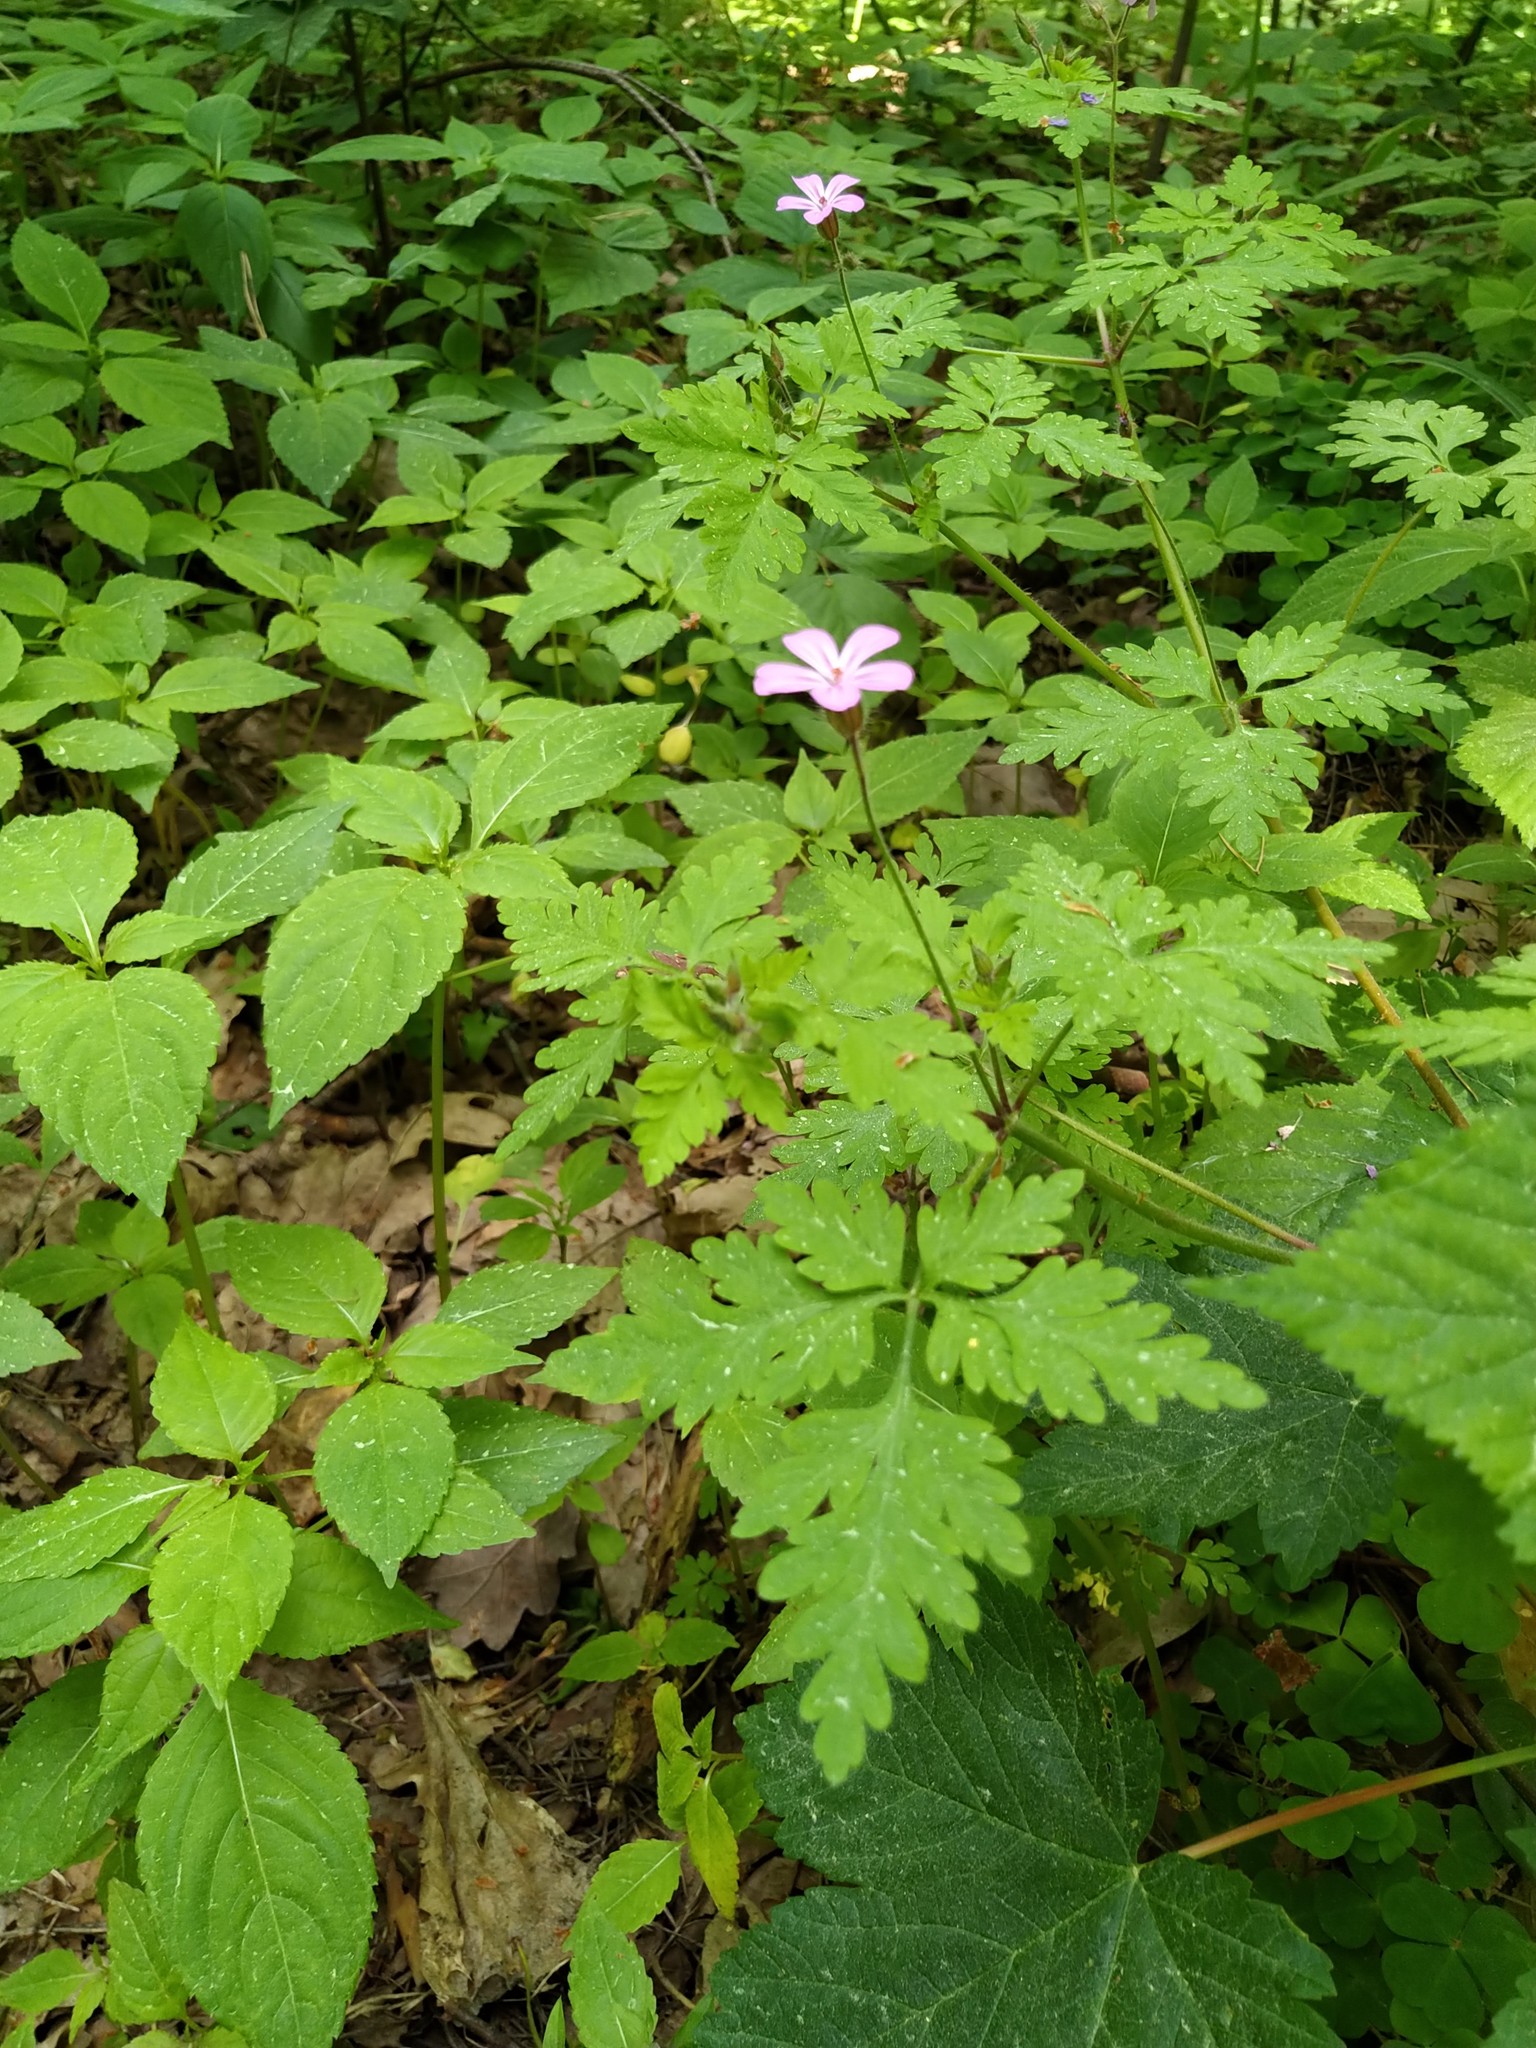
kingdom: Plantae
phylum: Tracheophyta
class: Magnoliopsida
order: Geraniales
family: Geraniaceae
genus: Geranium
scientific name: Geranium robertianum
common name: Herb-robert
